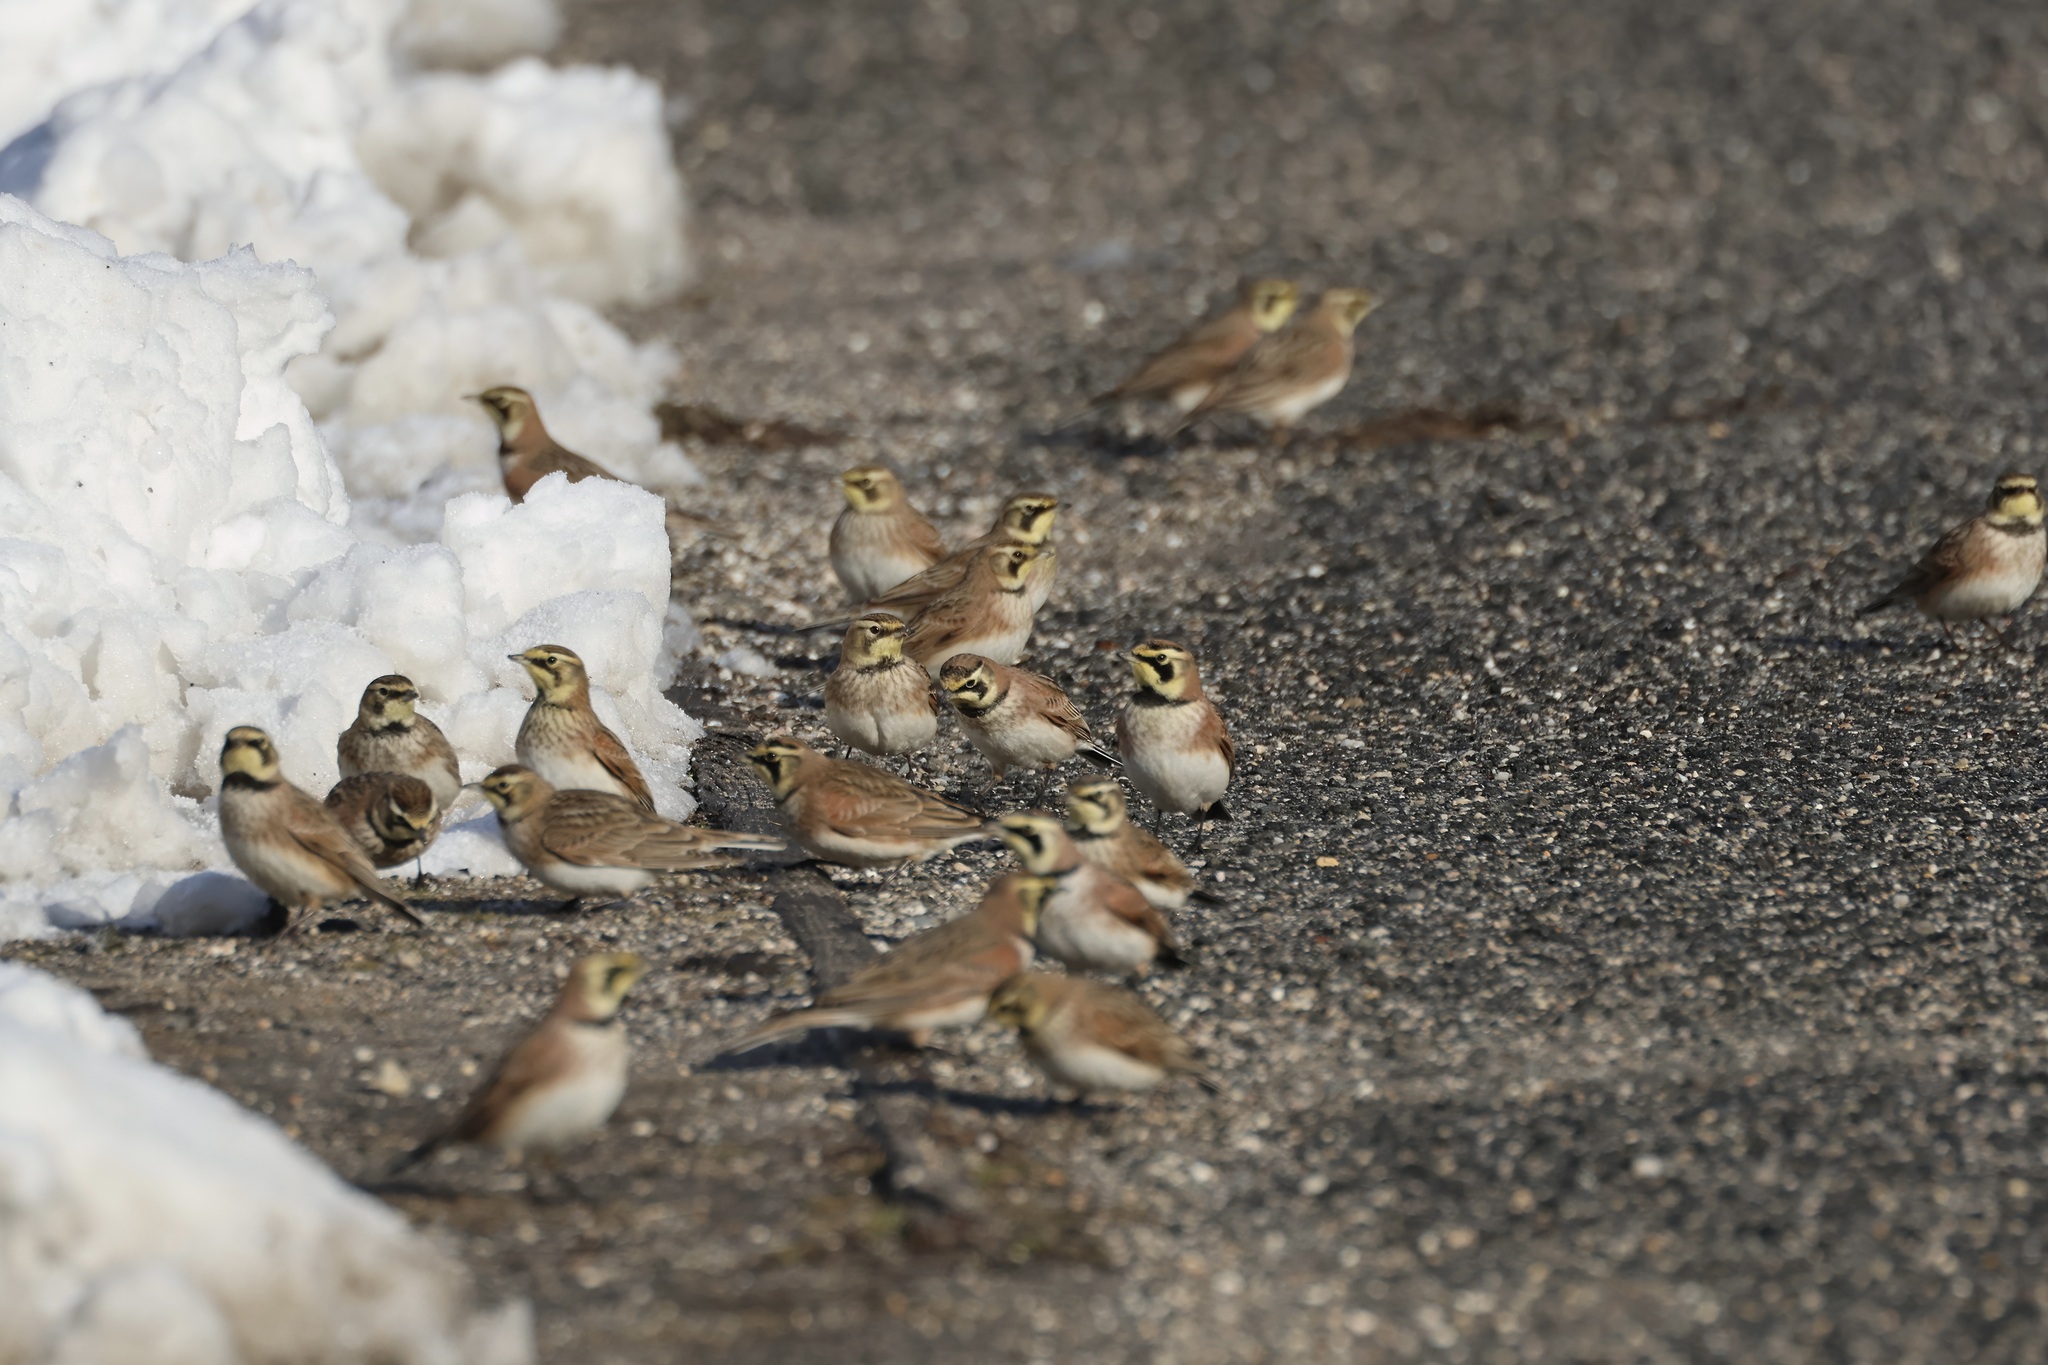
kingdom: Animalia
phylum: Chordata
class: Aves
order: Passeriformes
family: Alaudidae
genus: Eremophila
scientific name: Eremophila alpestris
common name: Horned lark
